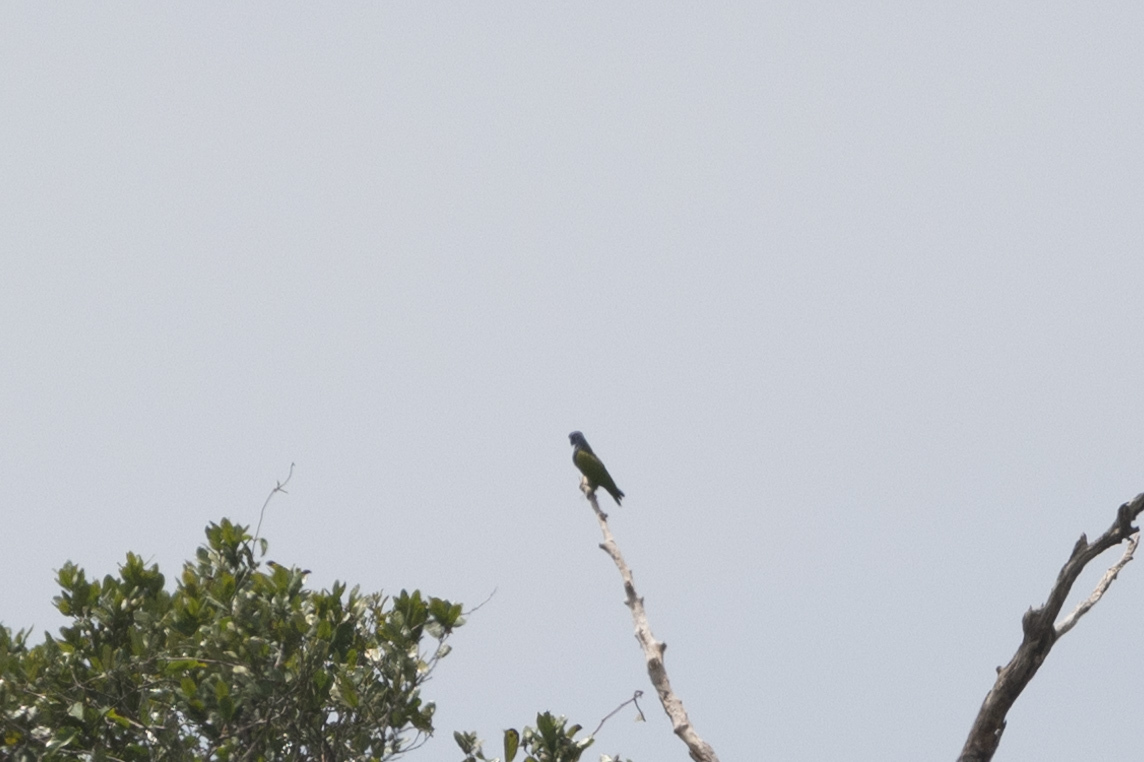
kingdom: Animalia
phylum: Chordata
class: Aves
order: Psittaciformes
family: Psittacidae
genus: Pionus
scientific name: Pionus menstruus
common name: Blue-headed parrot
